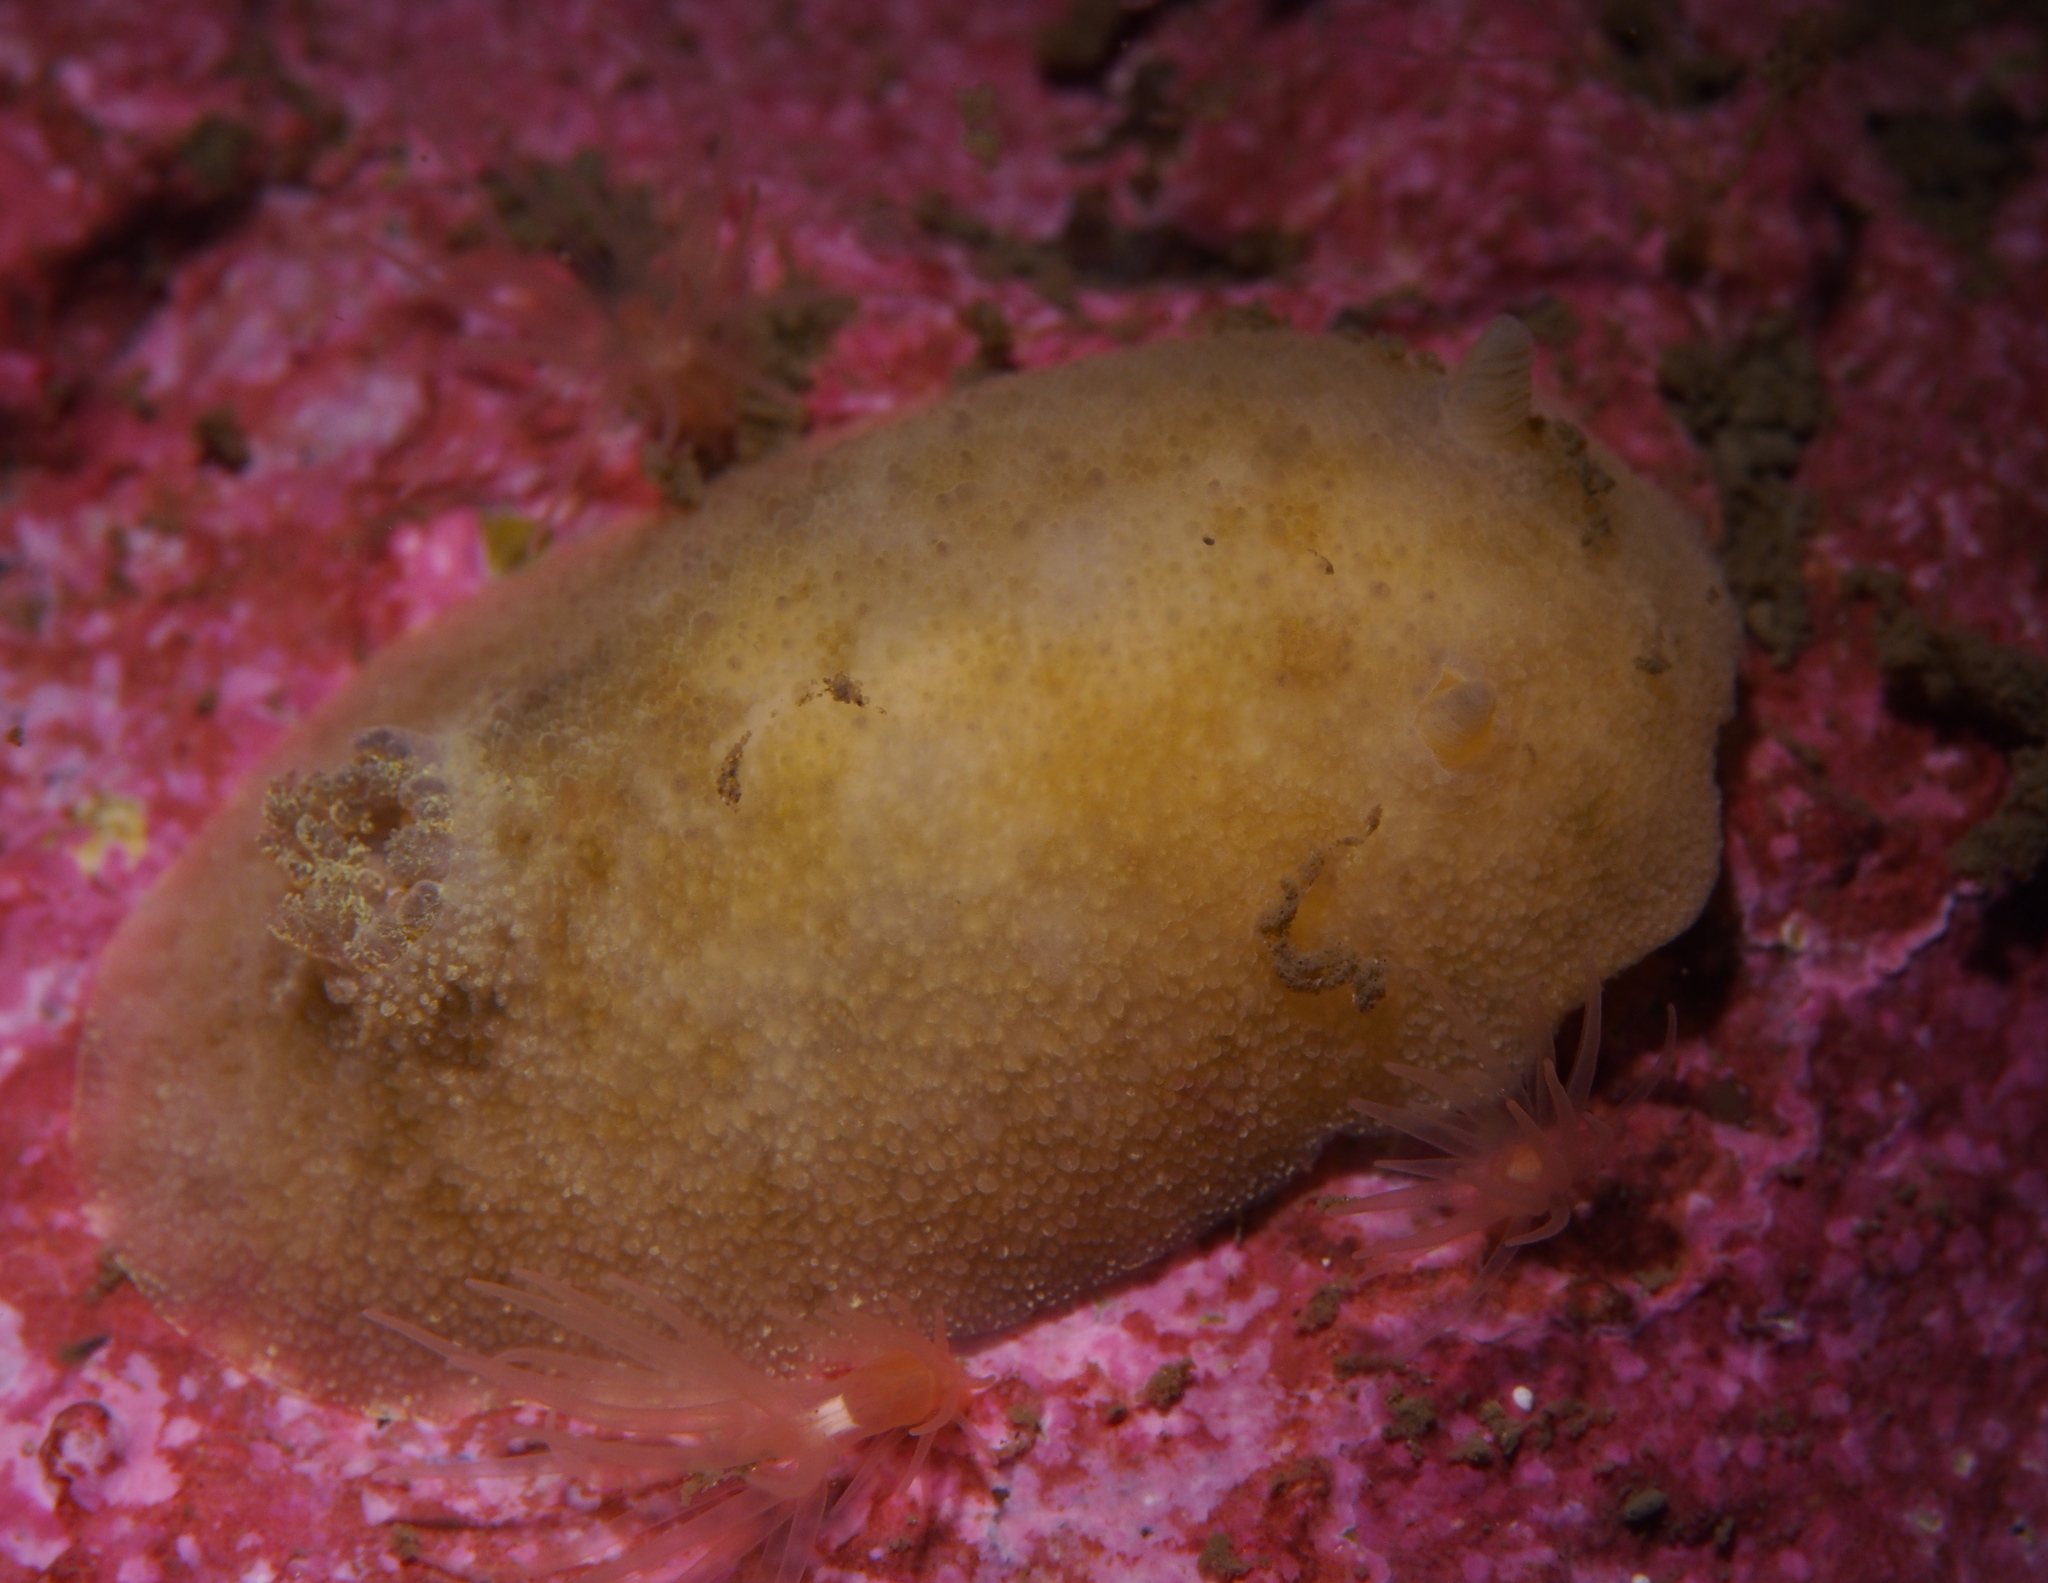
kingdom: Animalia
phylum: Mollusca
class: Gastropoda
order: Nudibranchia
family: Dorididae
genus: Doris
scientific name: Doris pseudoargus
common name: Sea lemon
